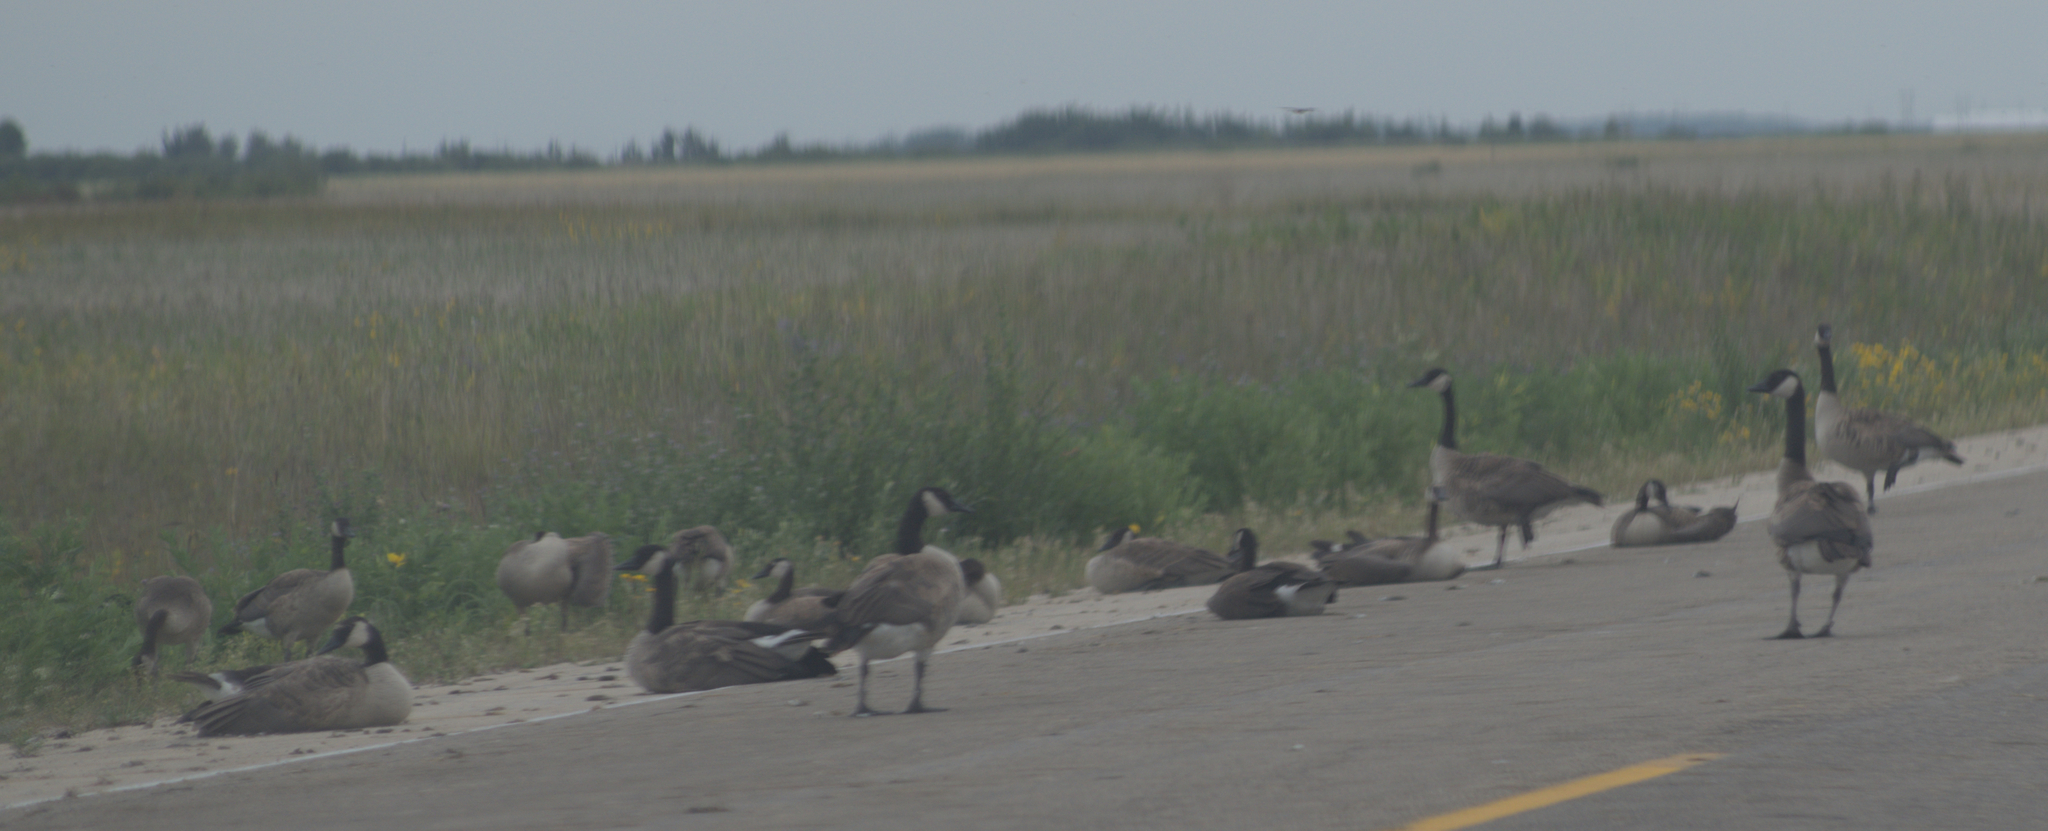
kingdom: Animalia
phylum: Chordata
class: Aves
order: Anseriformes
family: Anatidae
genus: Branta
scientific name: Branta canadensis
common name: Canada goose
